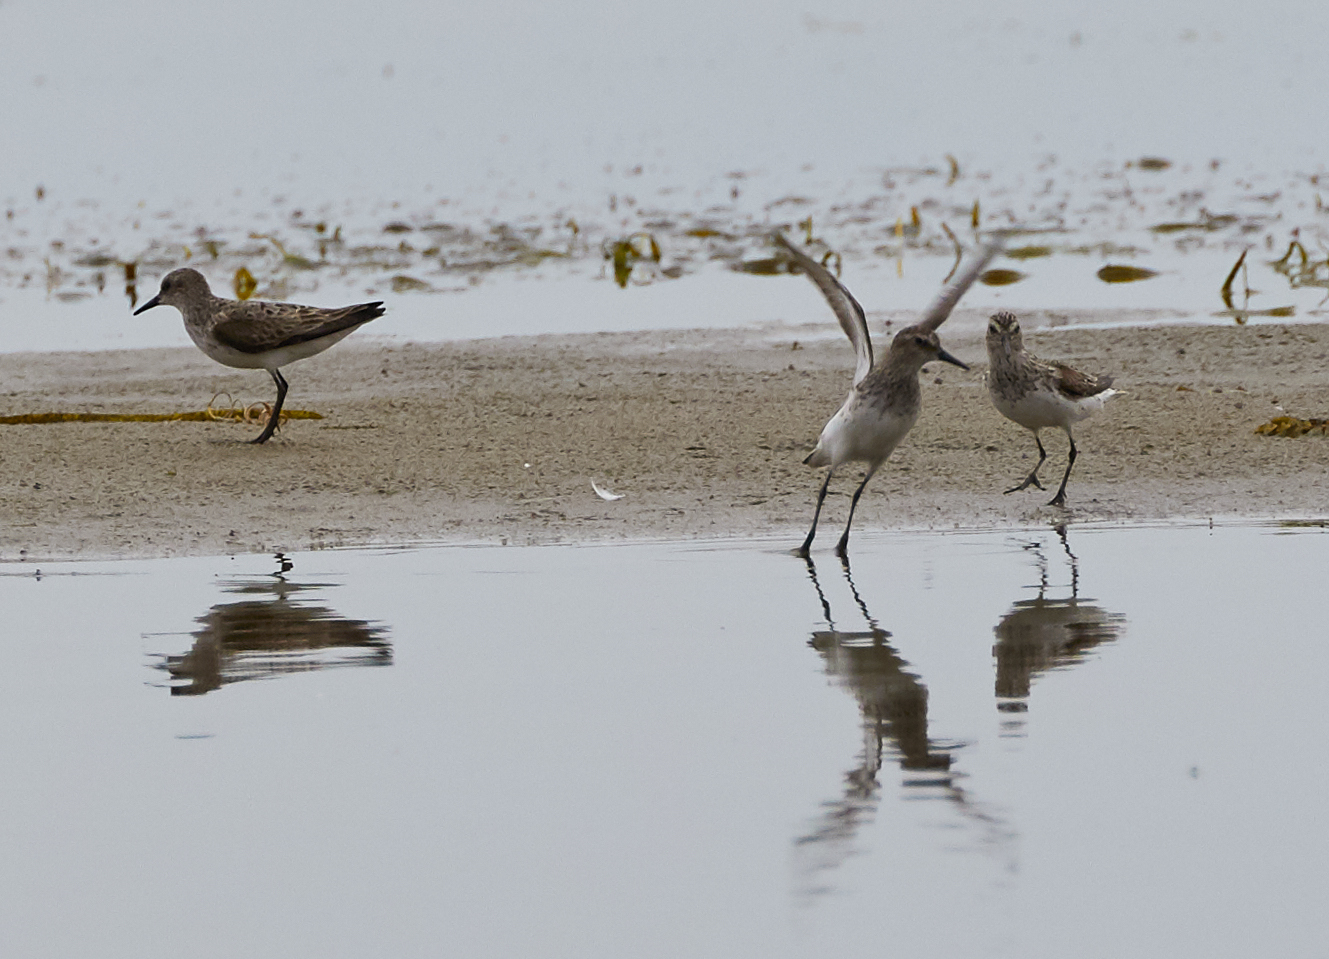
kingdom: Animalia
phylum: Chordata
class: Aves
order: Charadriiformes
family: Scolopacidae
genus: Calidris
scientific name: Calidris pusilla
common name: Semipalmated sandpiper
